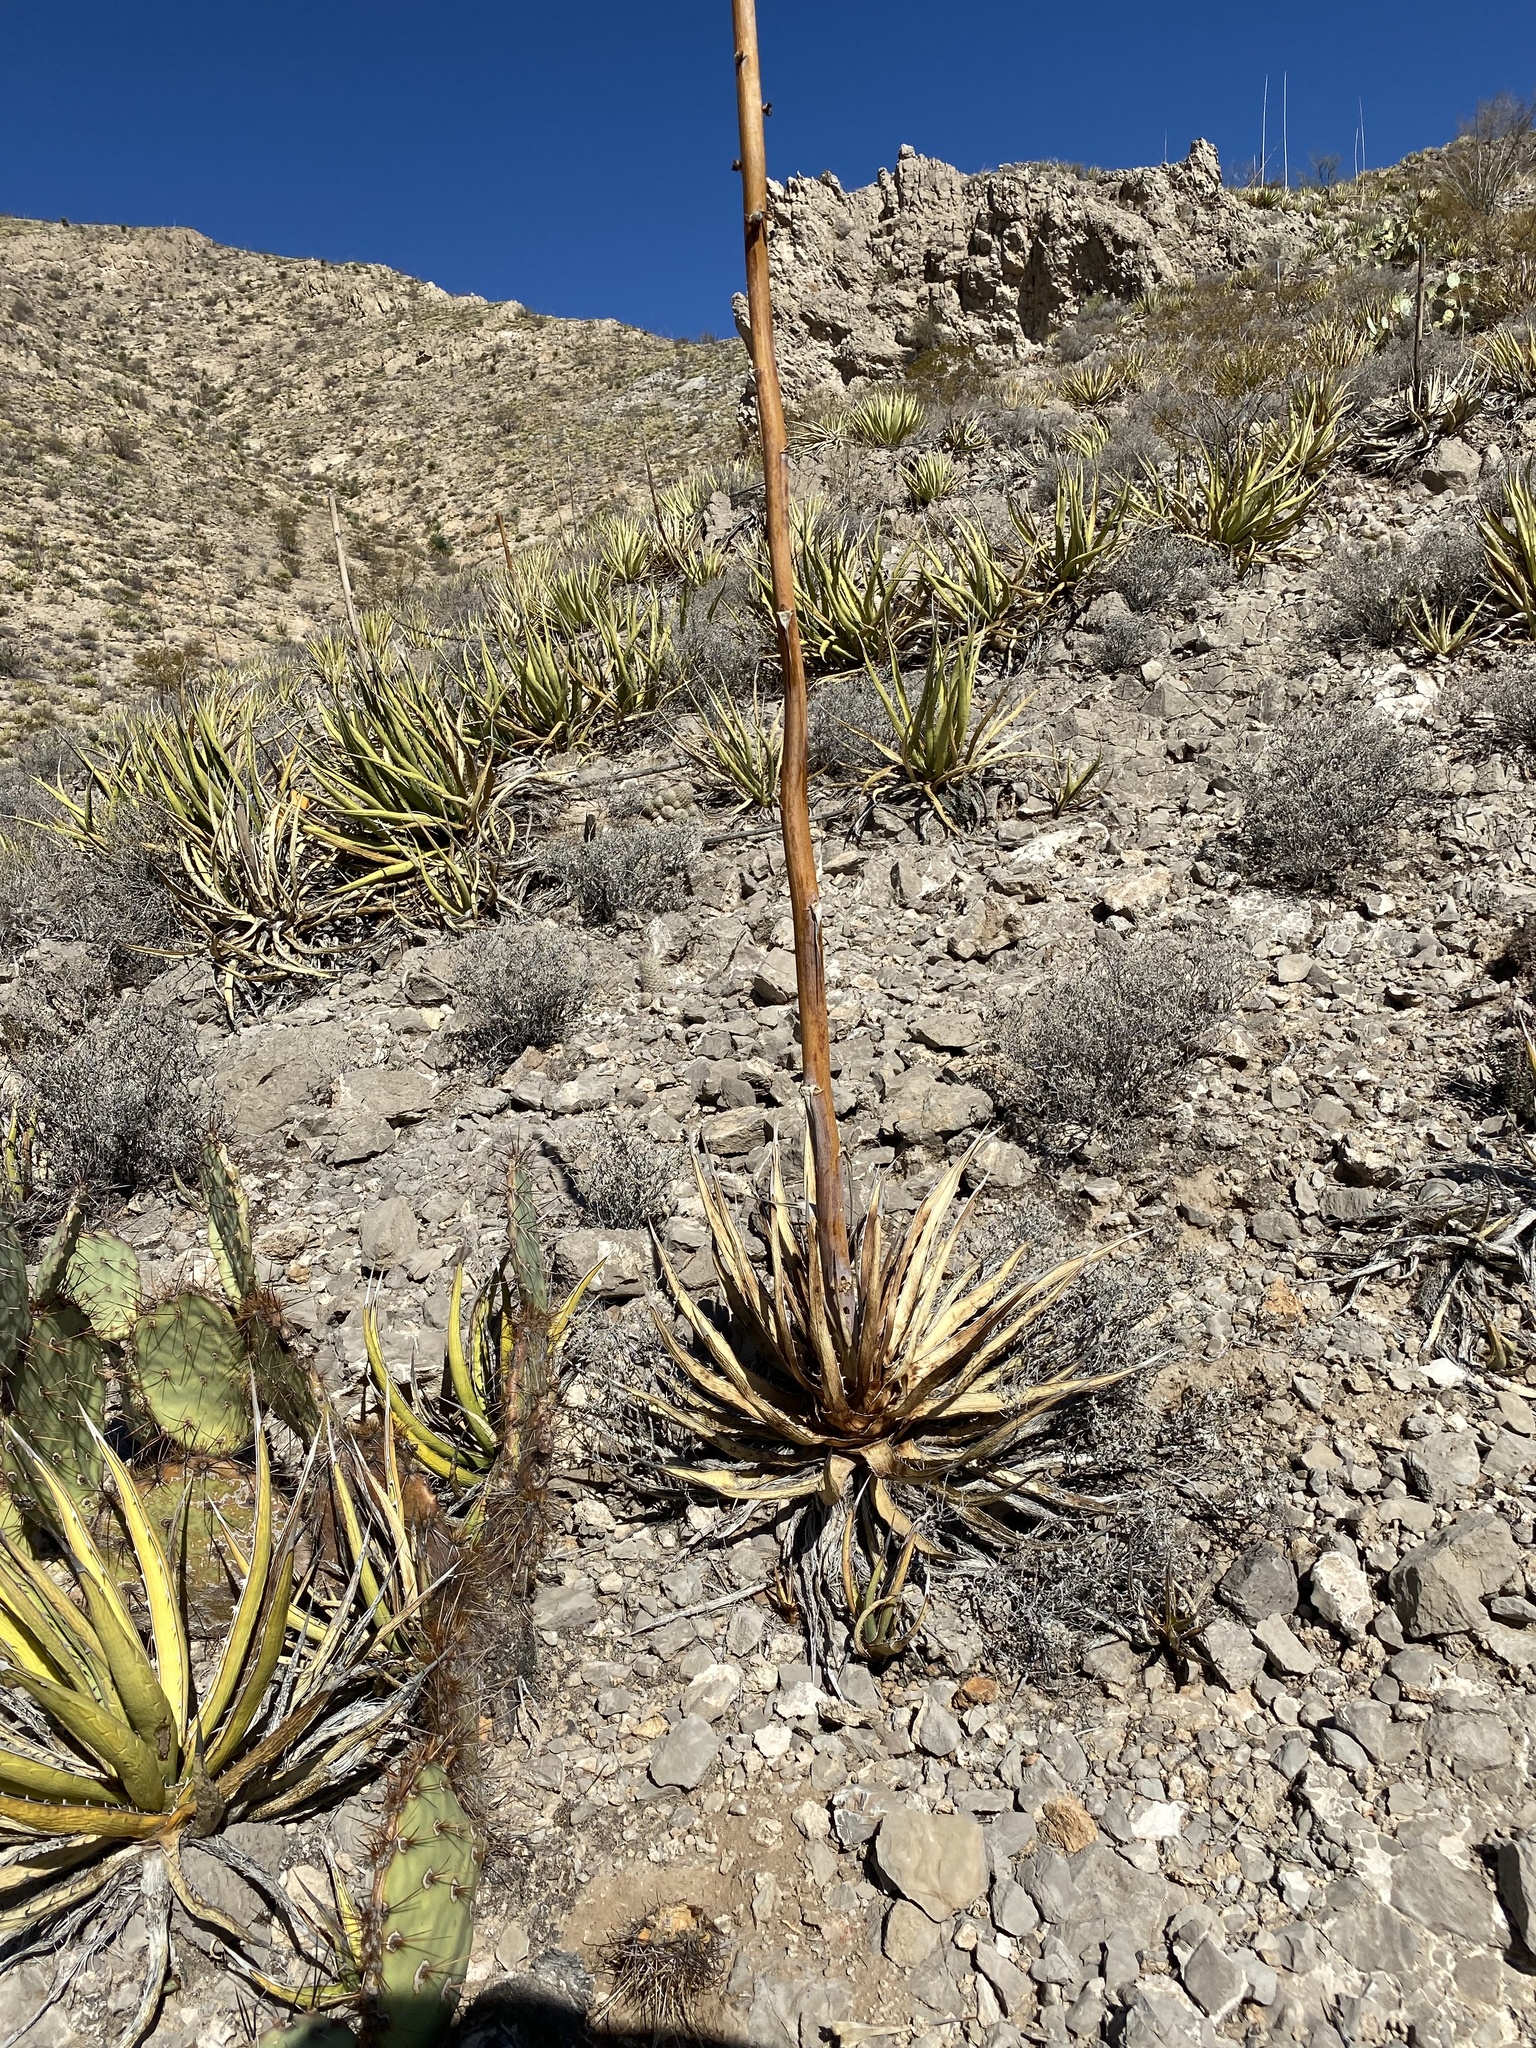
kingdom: Plantae
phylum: Tracheophyta
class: Liliopsida
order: Asparagales
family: Asparagaceae
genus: Agave
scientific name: Agave lechuguilla
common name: Lecheguilla agave
